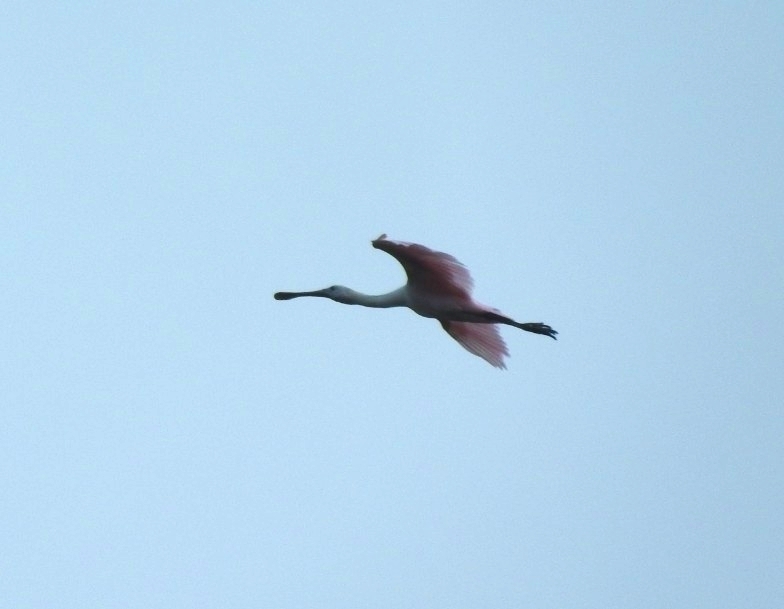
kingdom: Animalia
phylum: Chordata
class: Aves
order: Pelecaniformes
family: Threskiornithidae
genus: Platalea
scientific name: Platalea ajaja
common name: Roseate spoonbill
